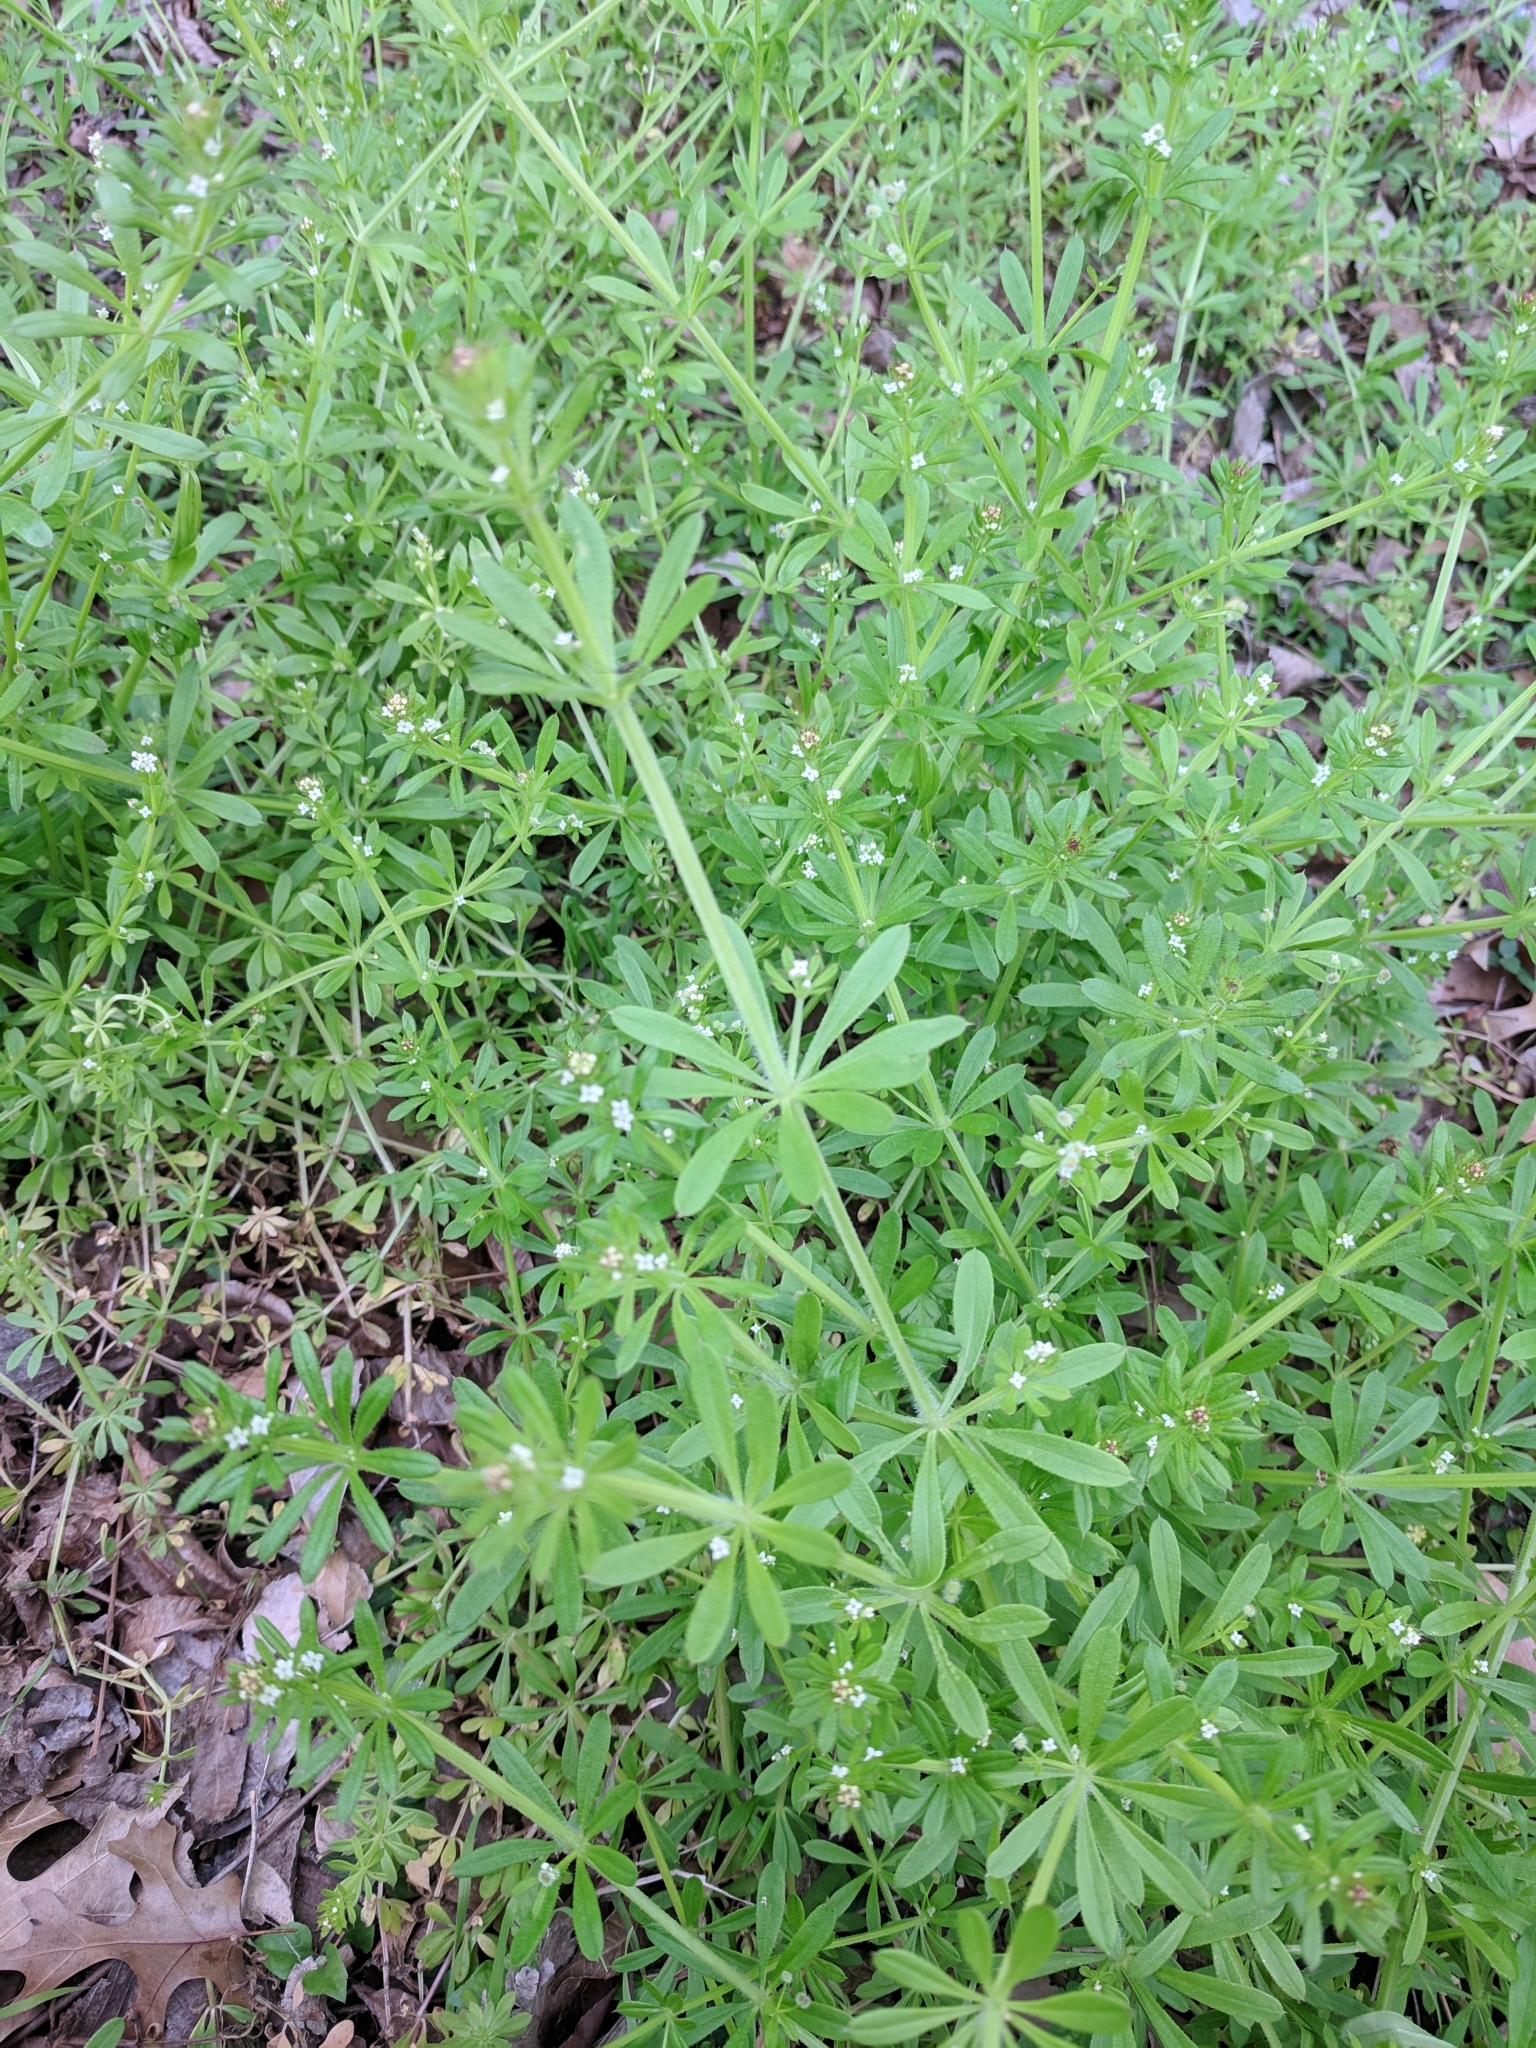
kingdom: Plantae
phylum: Tracheophyta
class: Magnoliopsida
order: Gentianales
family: Rubiaceae
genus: Galium
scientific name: Galium aparine
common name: Cleavers
